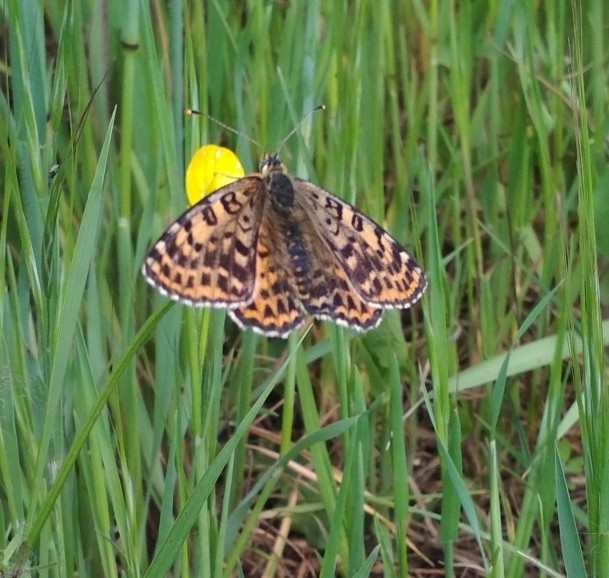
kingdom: Animalia
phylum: Arthropoda
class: Insecta
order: Lepidoptera
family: Nymphalidae
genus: Melitaea
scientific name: Melitaea didyma
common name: Spotted fritillary
